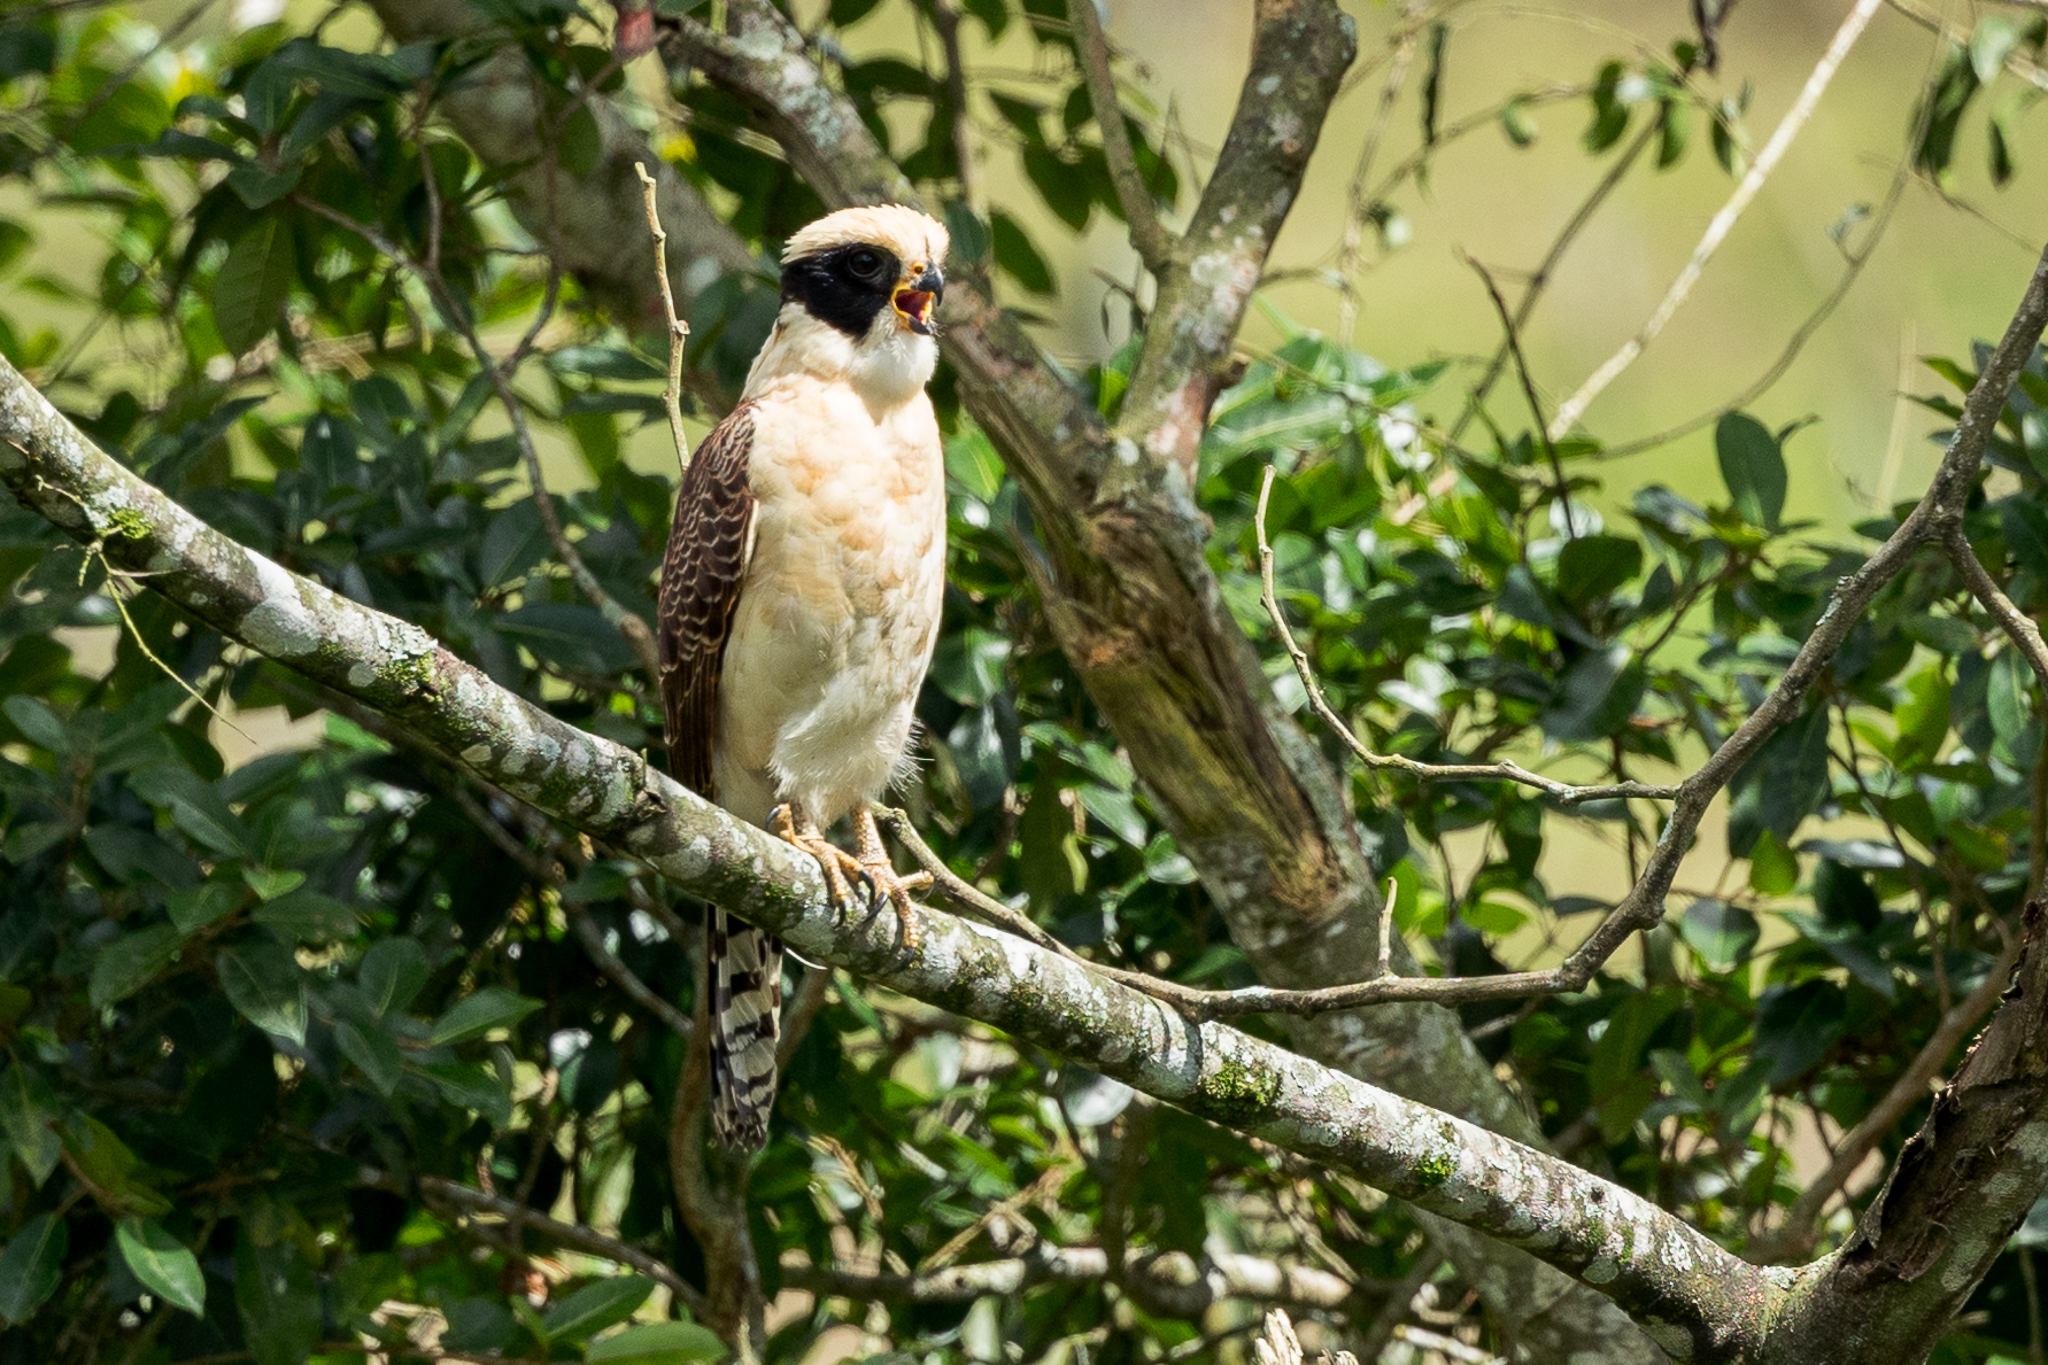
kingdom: Animalia
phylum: Chordata
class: Aves
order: Falconiformes
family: Falconidae
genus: Herpetotheres
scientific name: Herpetotheres cachinnans
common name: Laughing falcon
